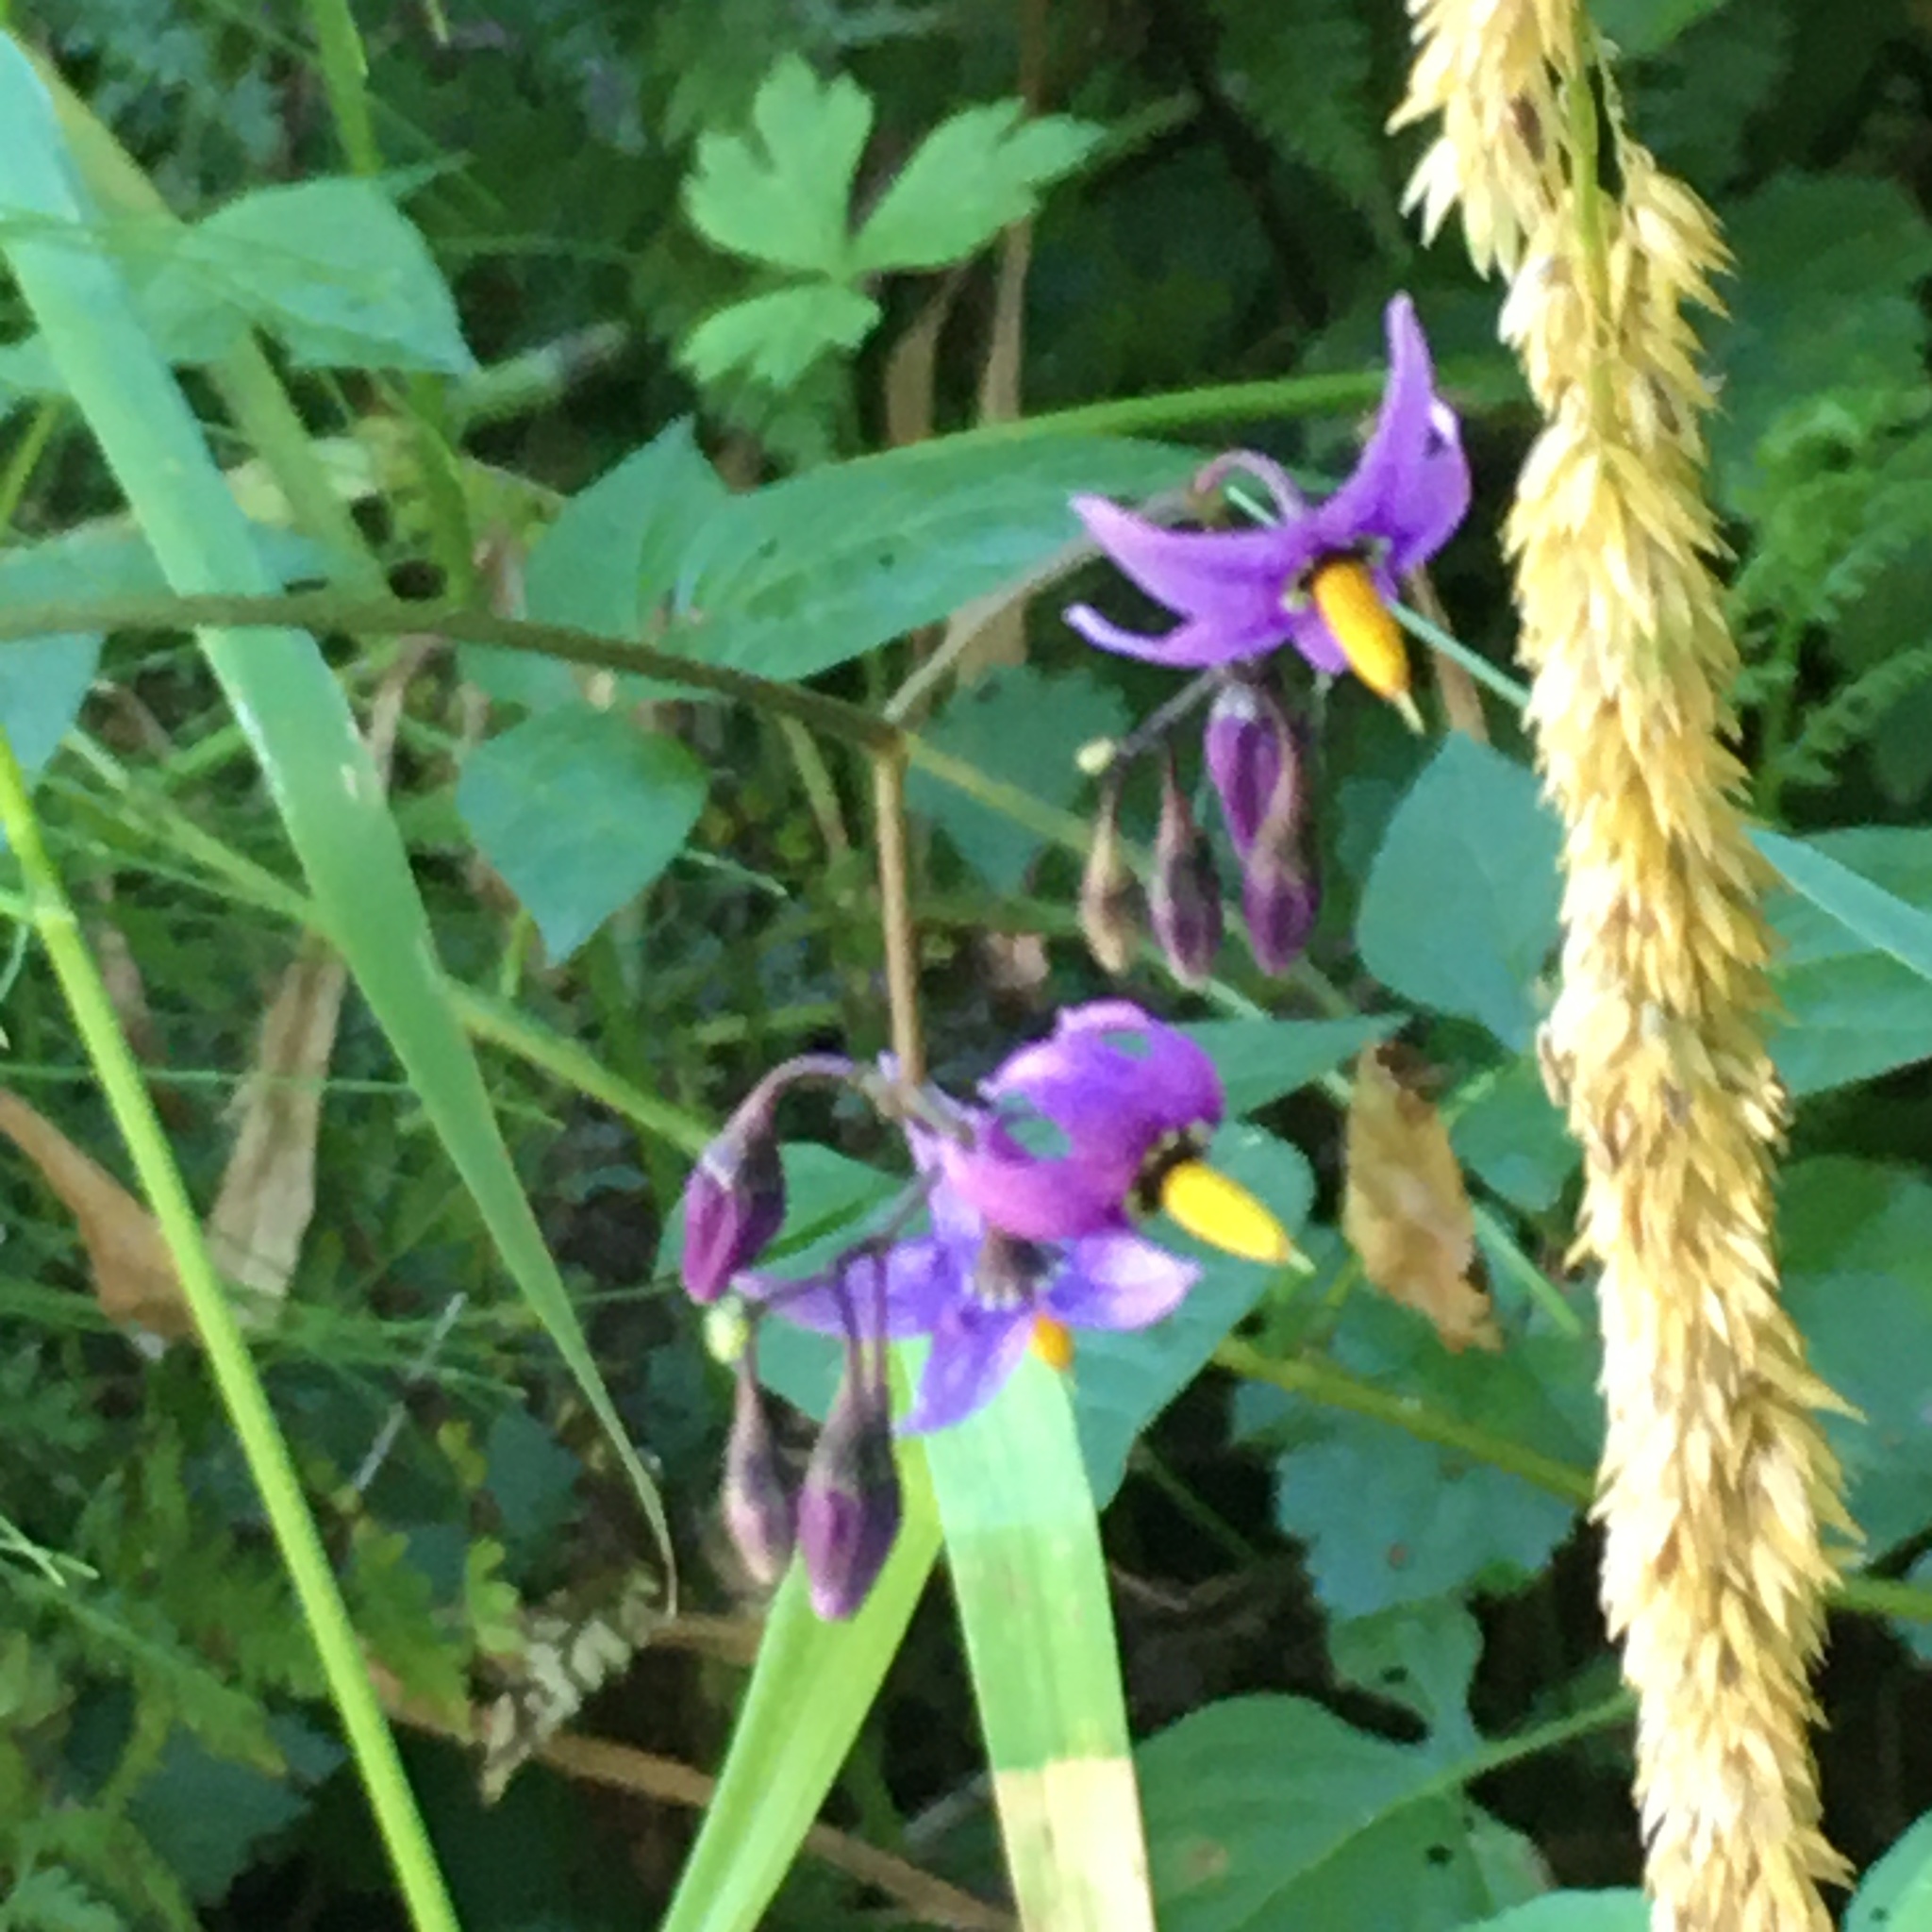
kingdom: Plantae
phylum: Tracheophyta
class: Magnoliopsida
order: Solanales
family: Solanaceae
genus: Solanum
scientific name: Solanum dulcamara
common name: Climbing nightshade
